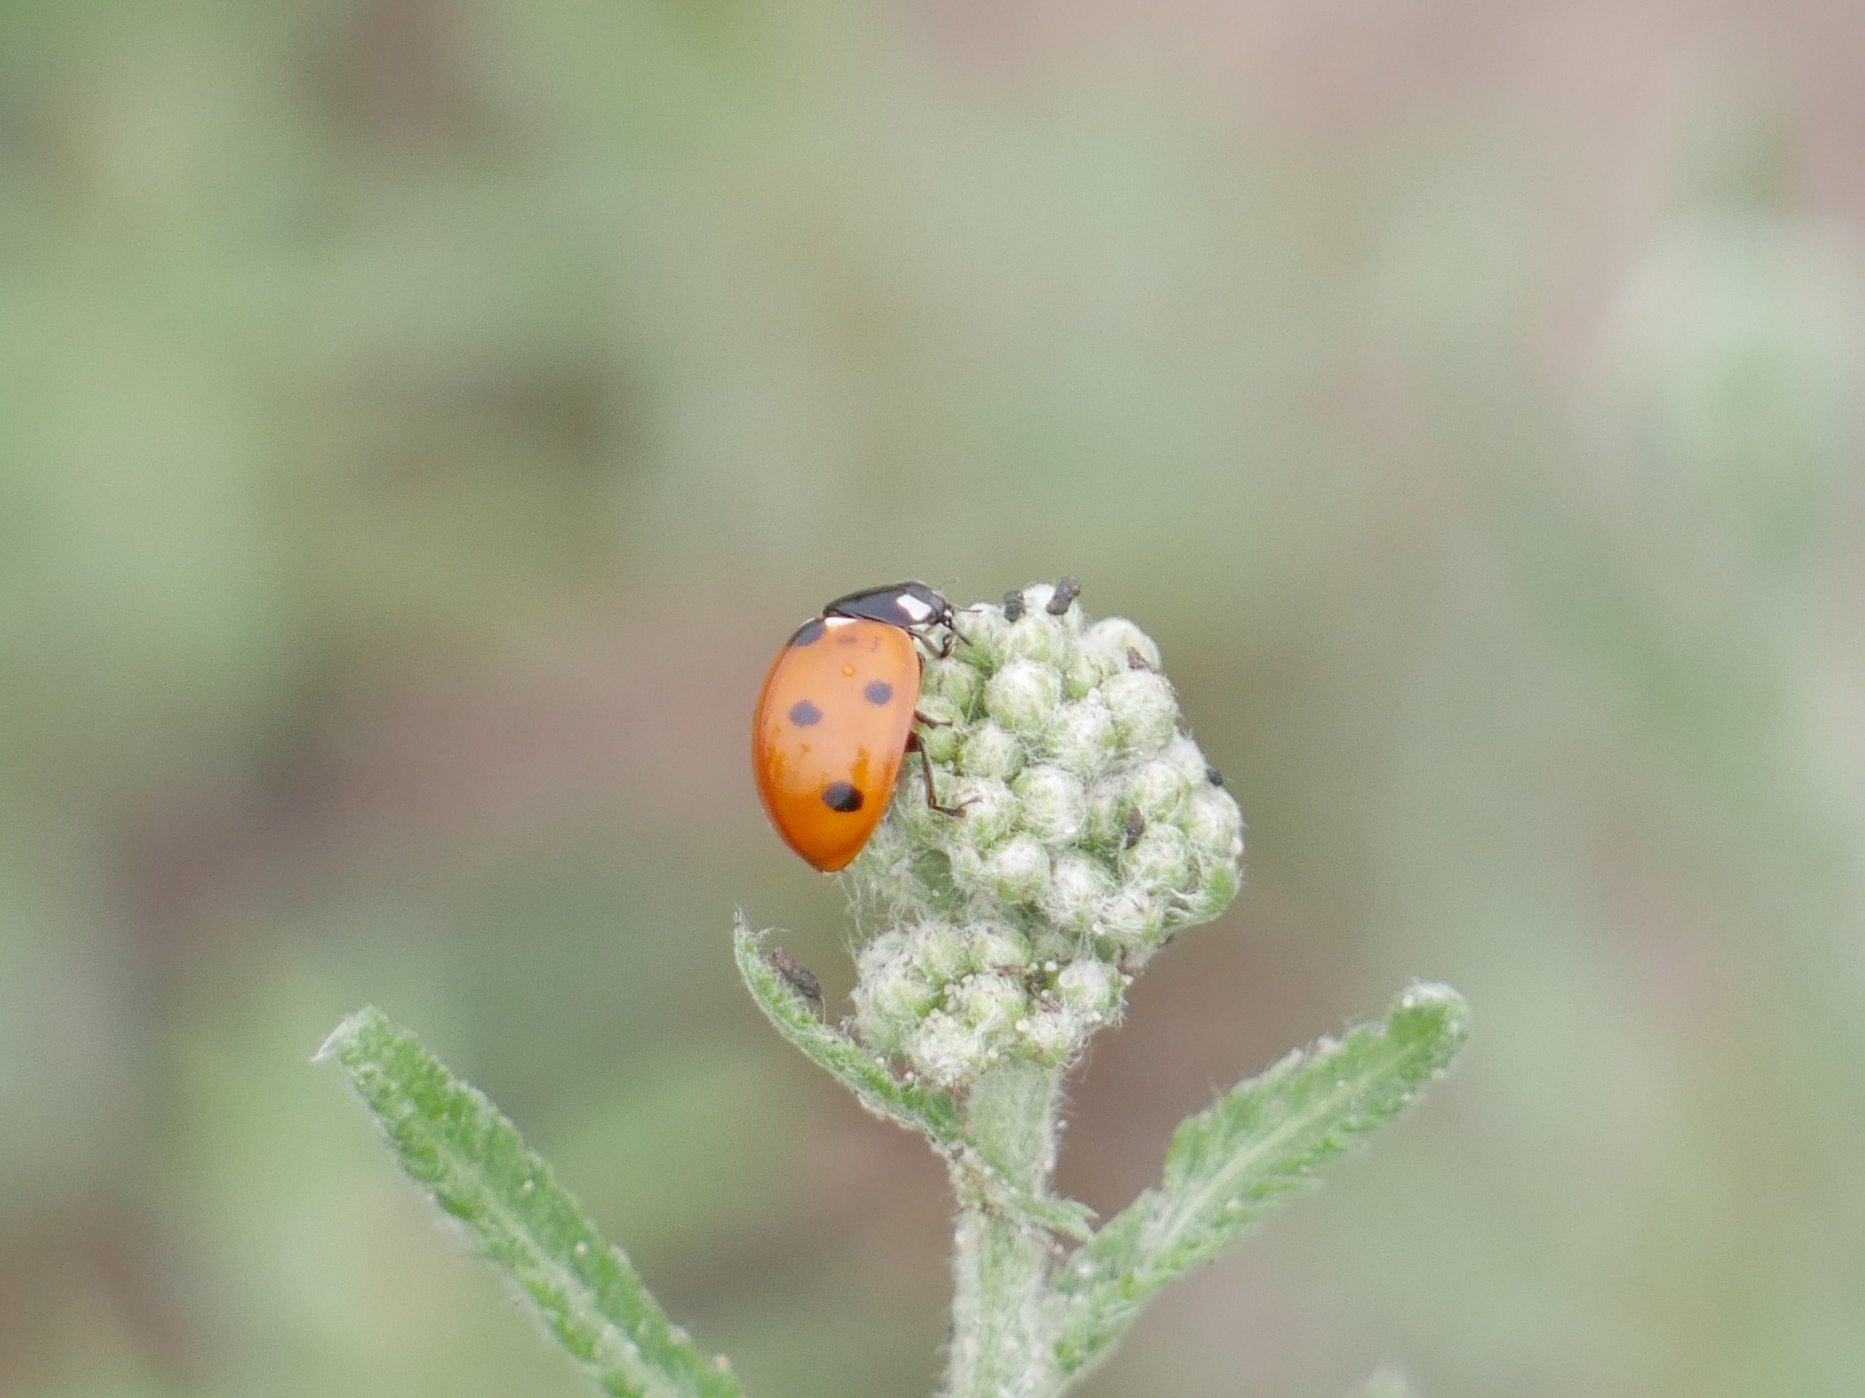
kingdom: Animalia
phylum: Arthropoda
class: Insecta
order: Coleoptera
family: Coccinellidae
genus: Coccinella
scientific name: Coccinella septempunctata
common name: Sevenspotted lady beetle
